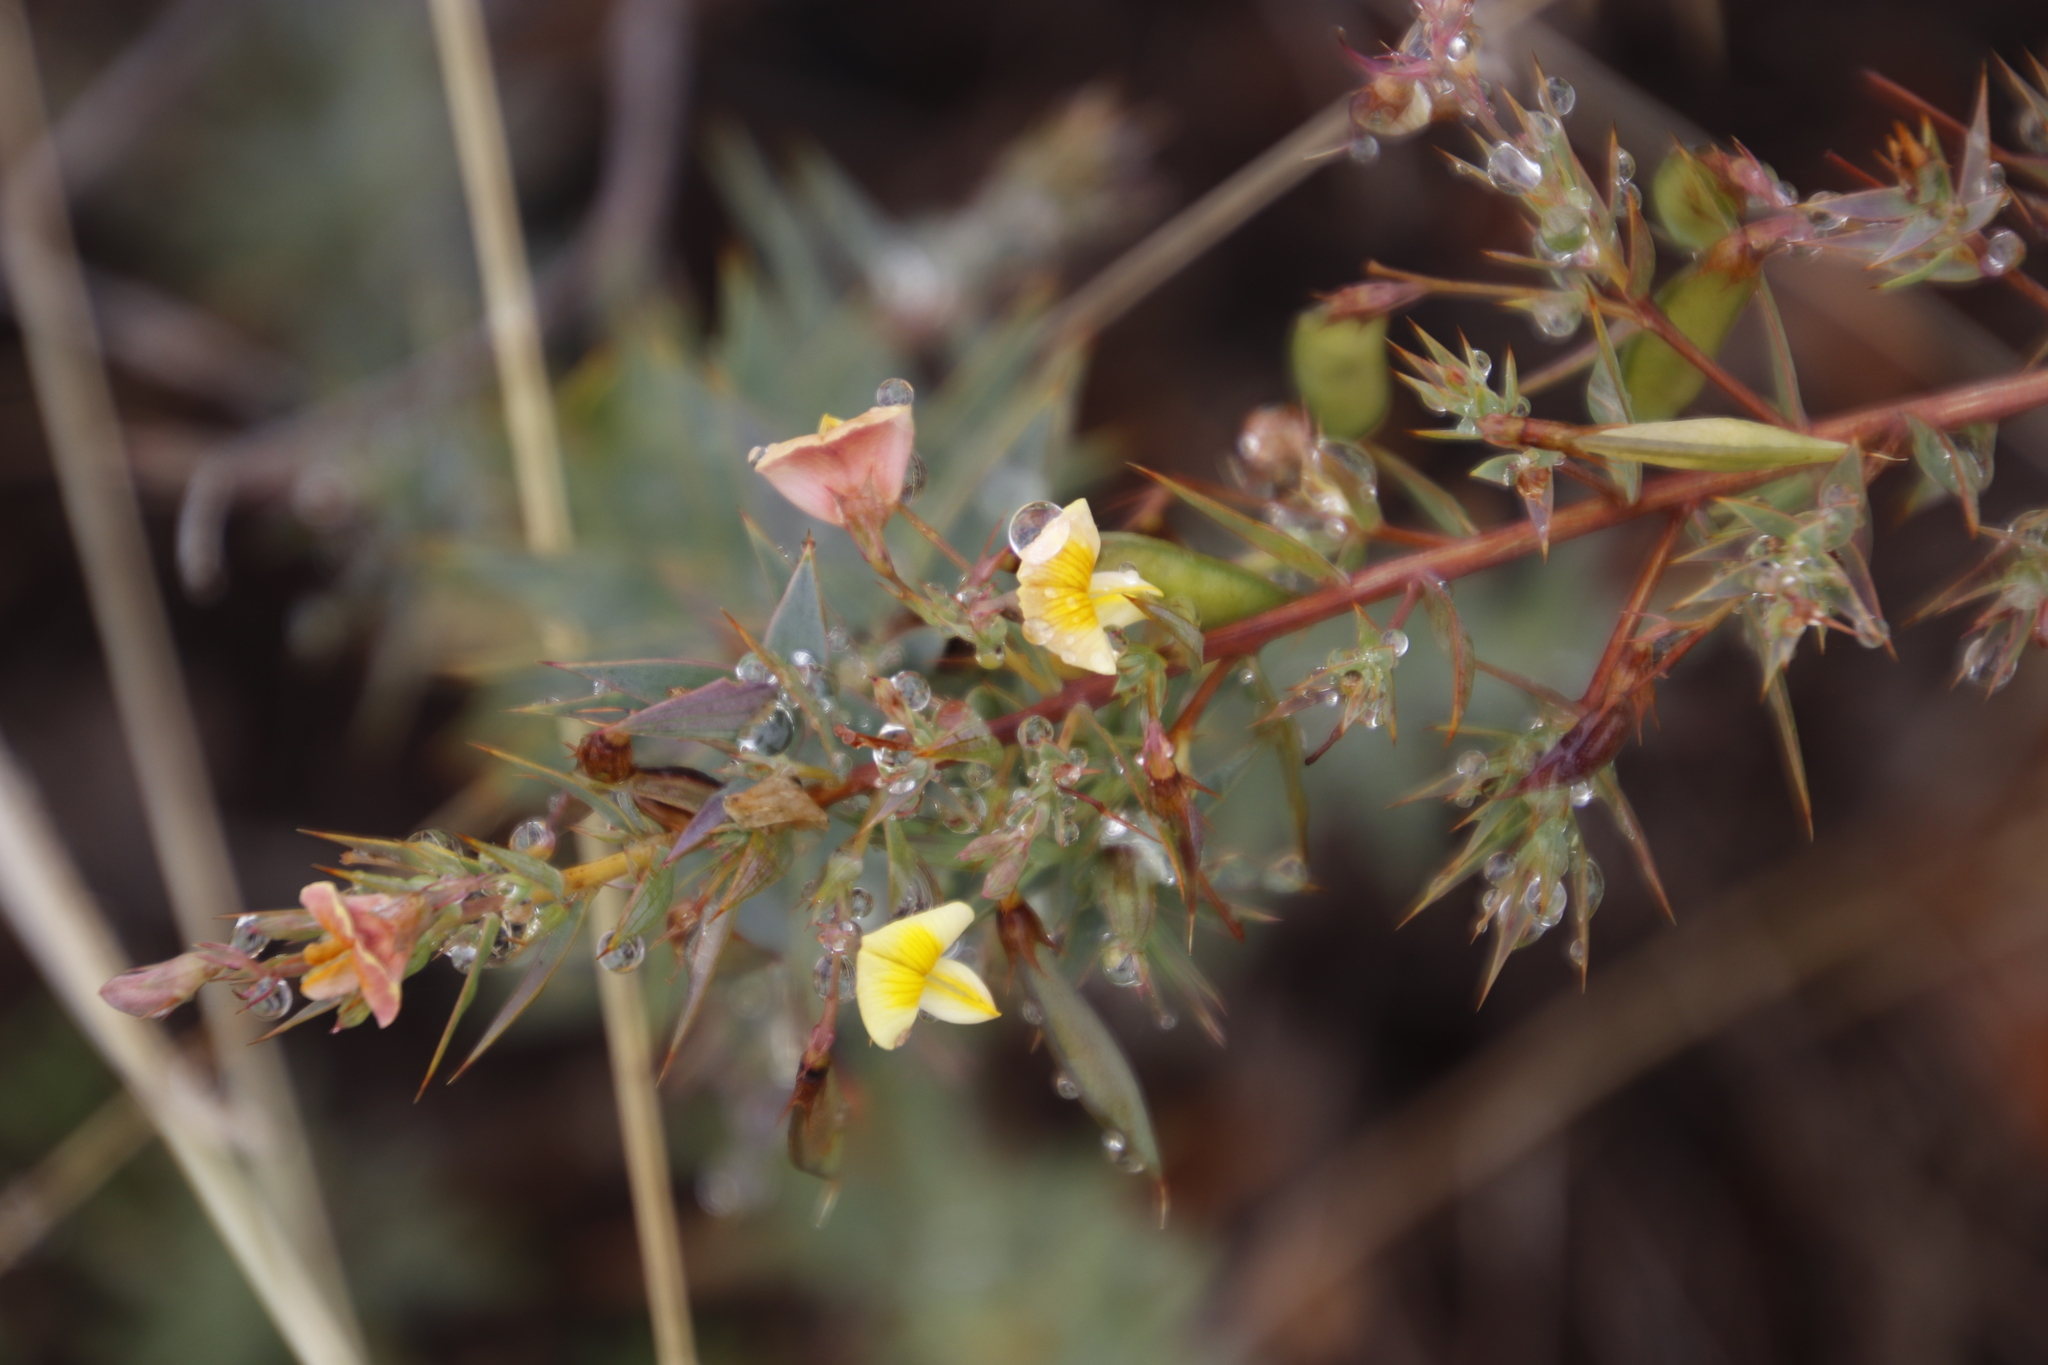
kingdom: Plantae
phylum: Tracheophyta
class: Magnoliopsida
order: Fabales
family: Fabaceae
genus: Aspalathus
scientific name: Aspalathus alpestris
